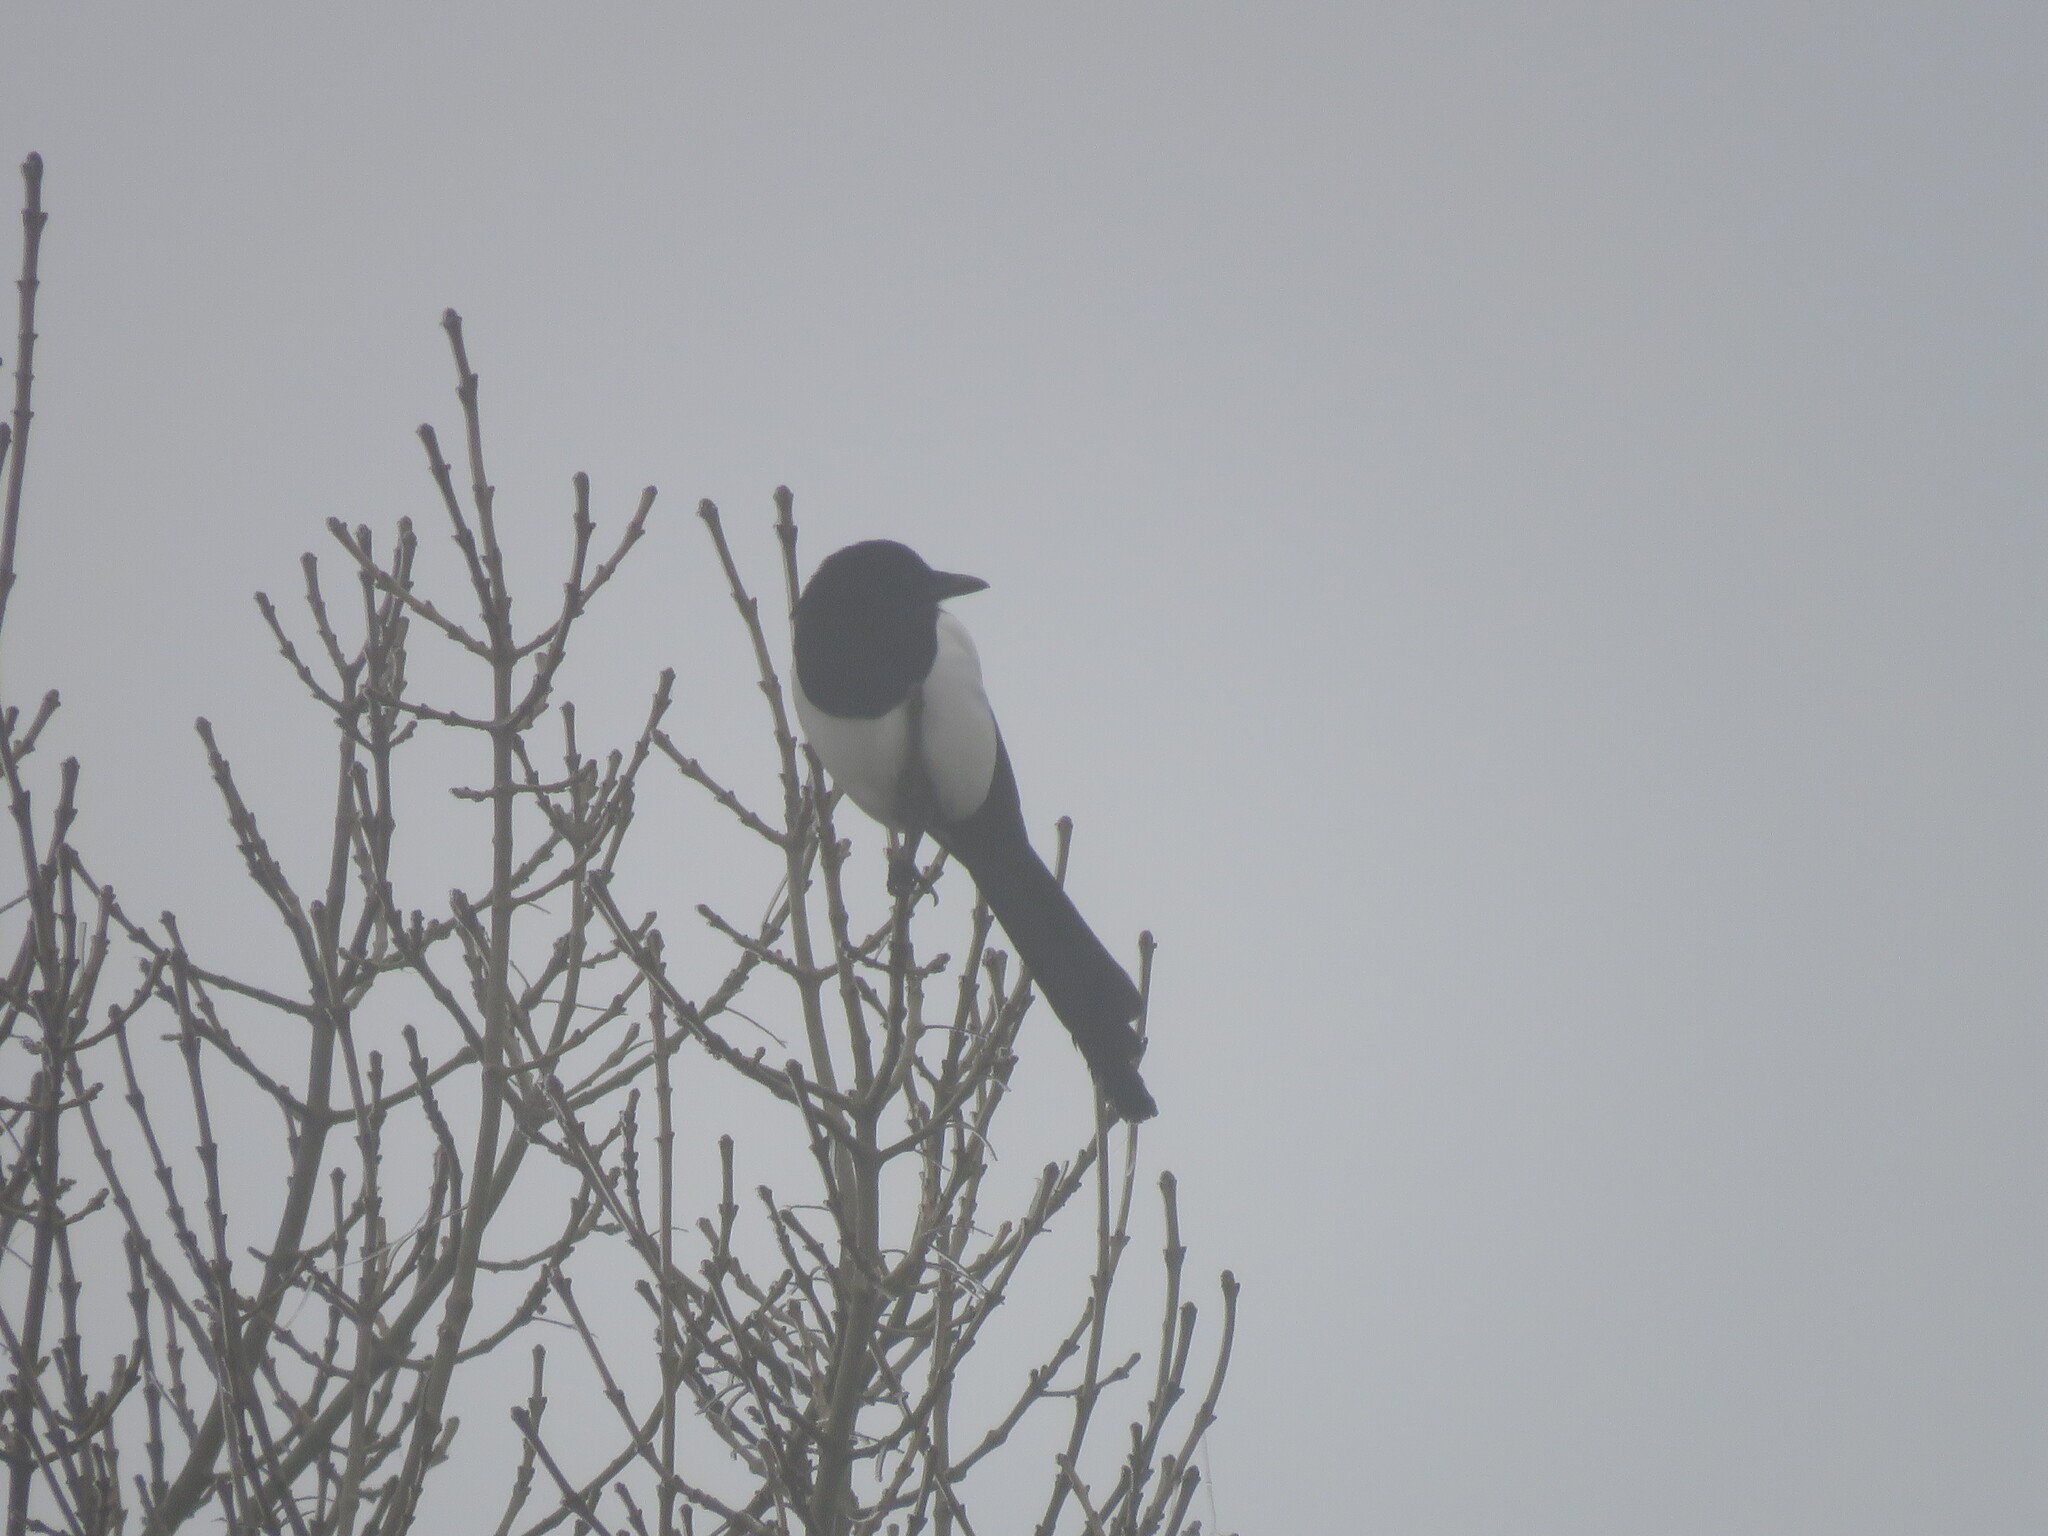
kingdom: Animalia
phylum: Chordata
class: Aves
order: Passeriformes
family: Corvidae
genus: Pica
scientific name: Pica pica
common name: Eurasian magpie
